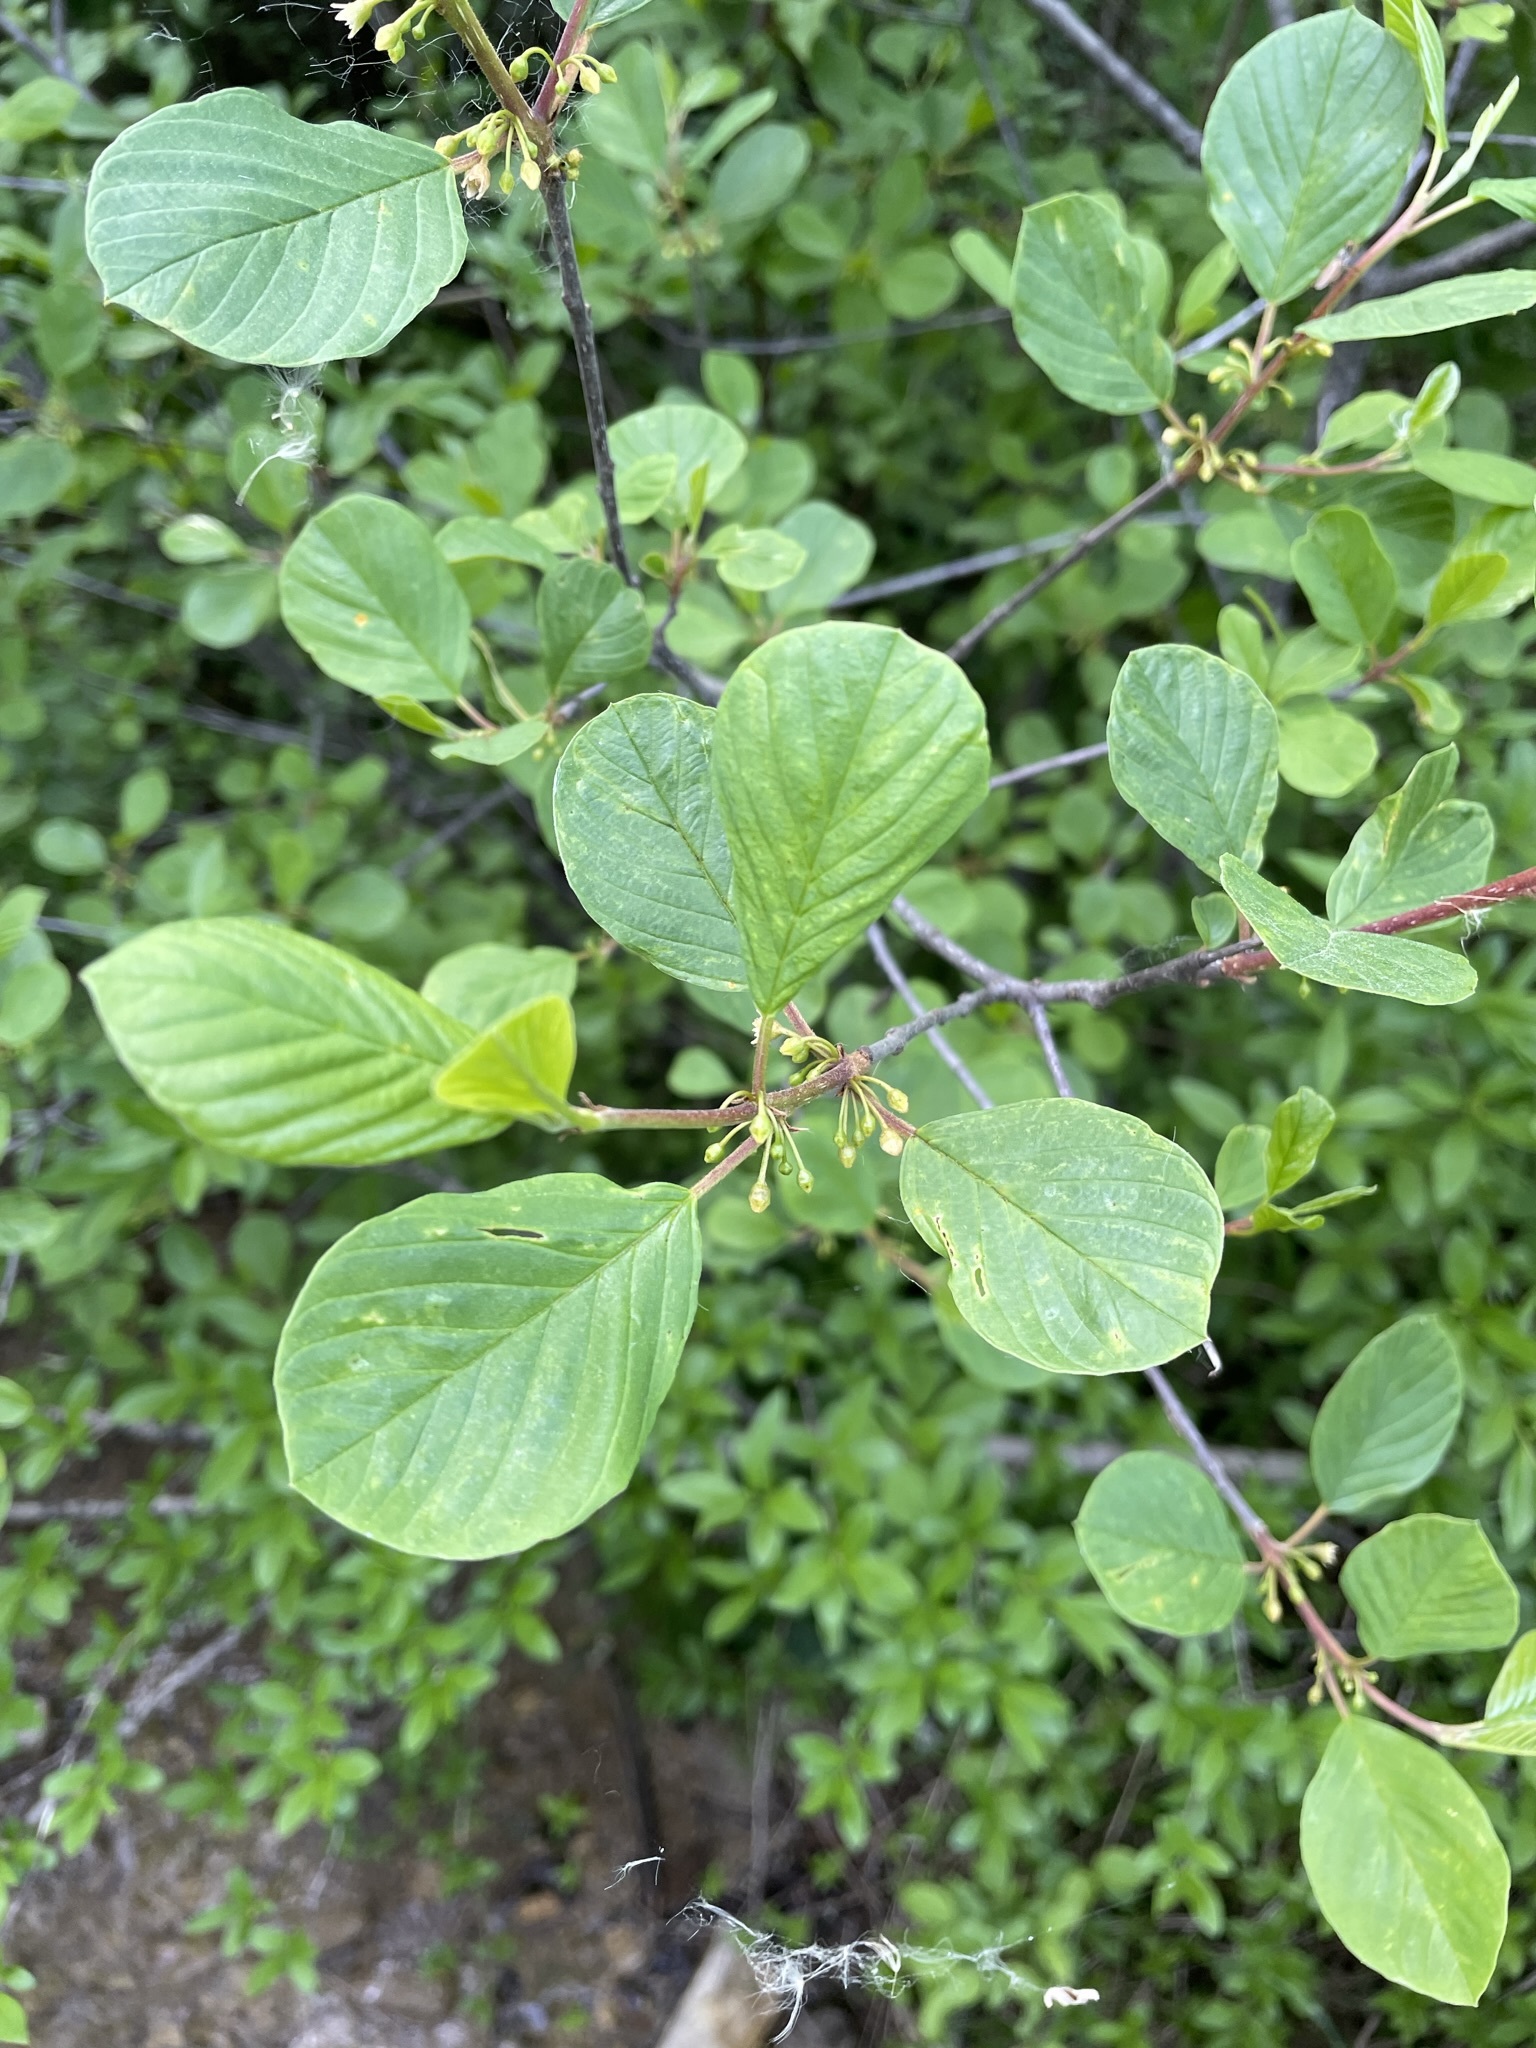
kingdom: Plantae
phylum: Tracheophyta
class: Magnoliopsida
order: Rosales
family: Rhamnaceae
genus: Frangula
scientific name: Frangula alnus
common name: Alder buckthorn
